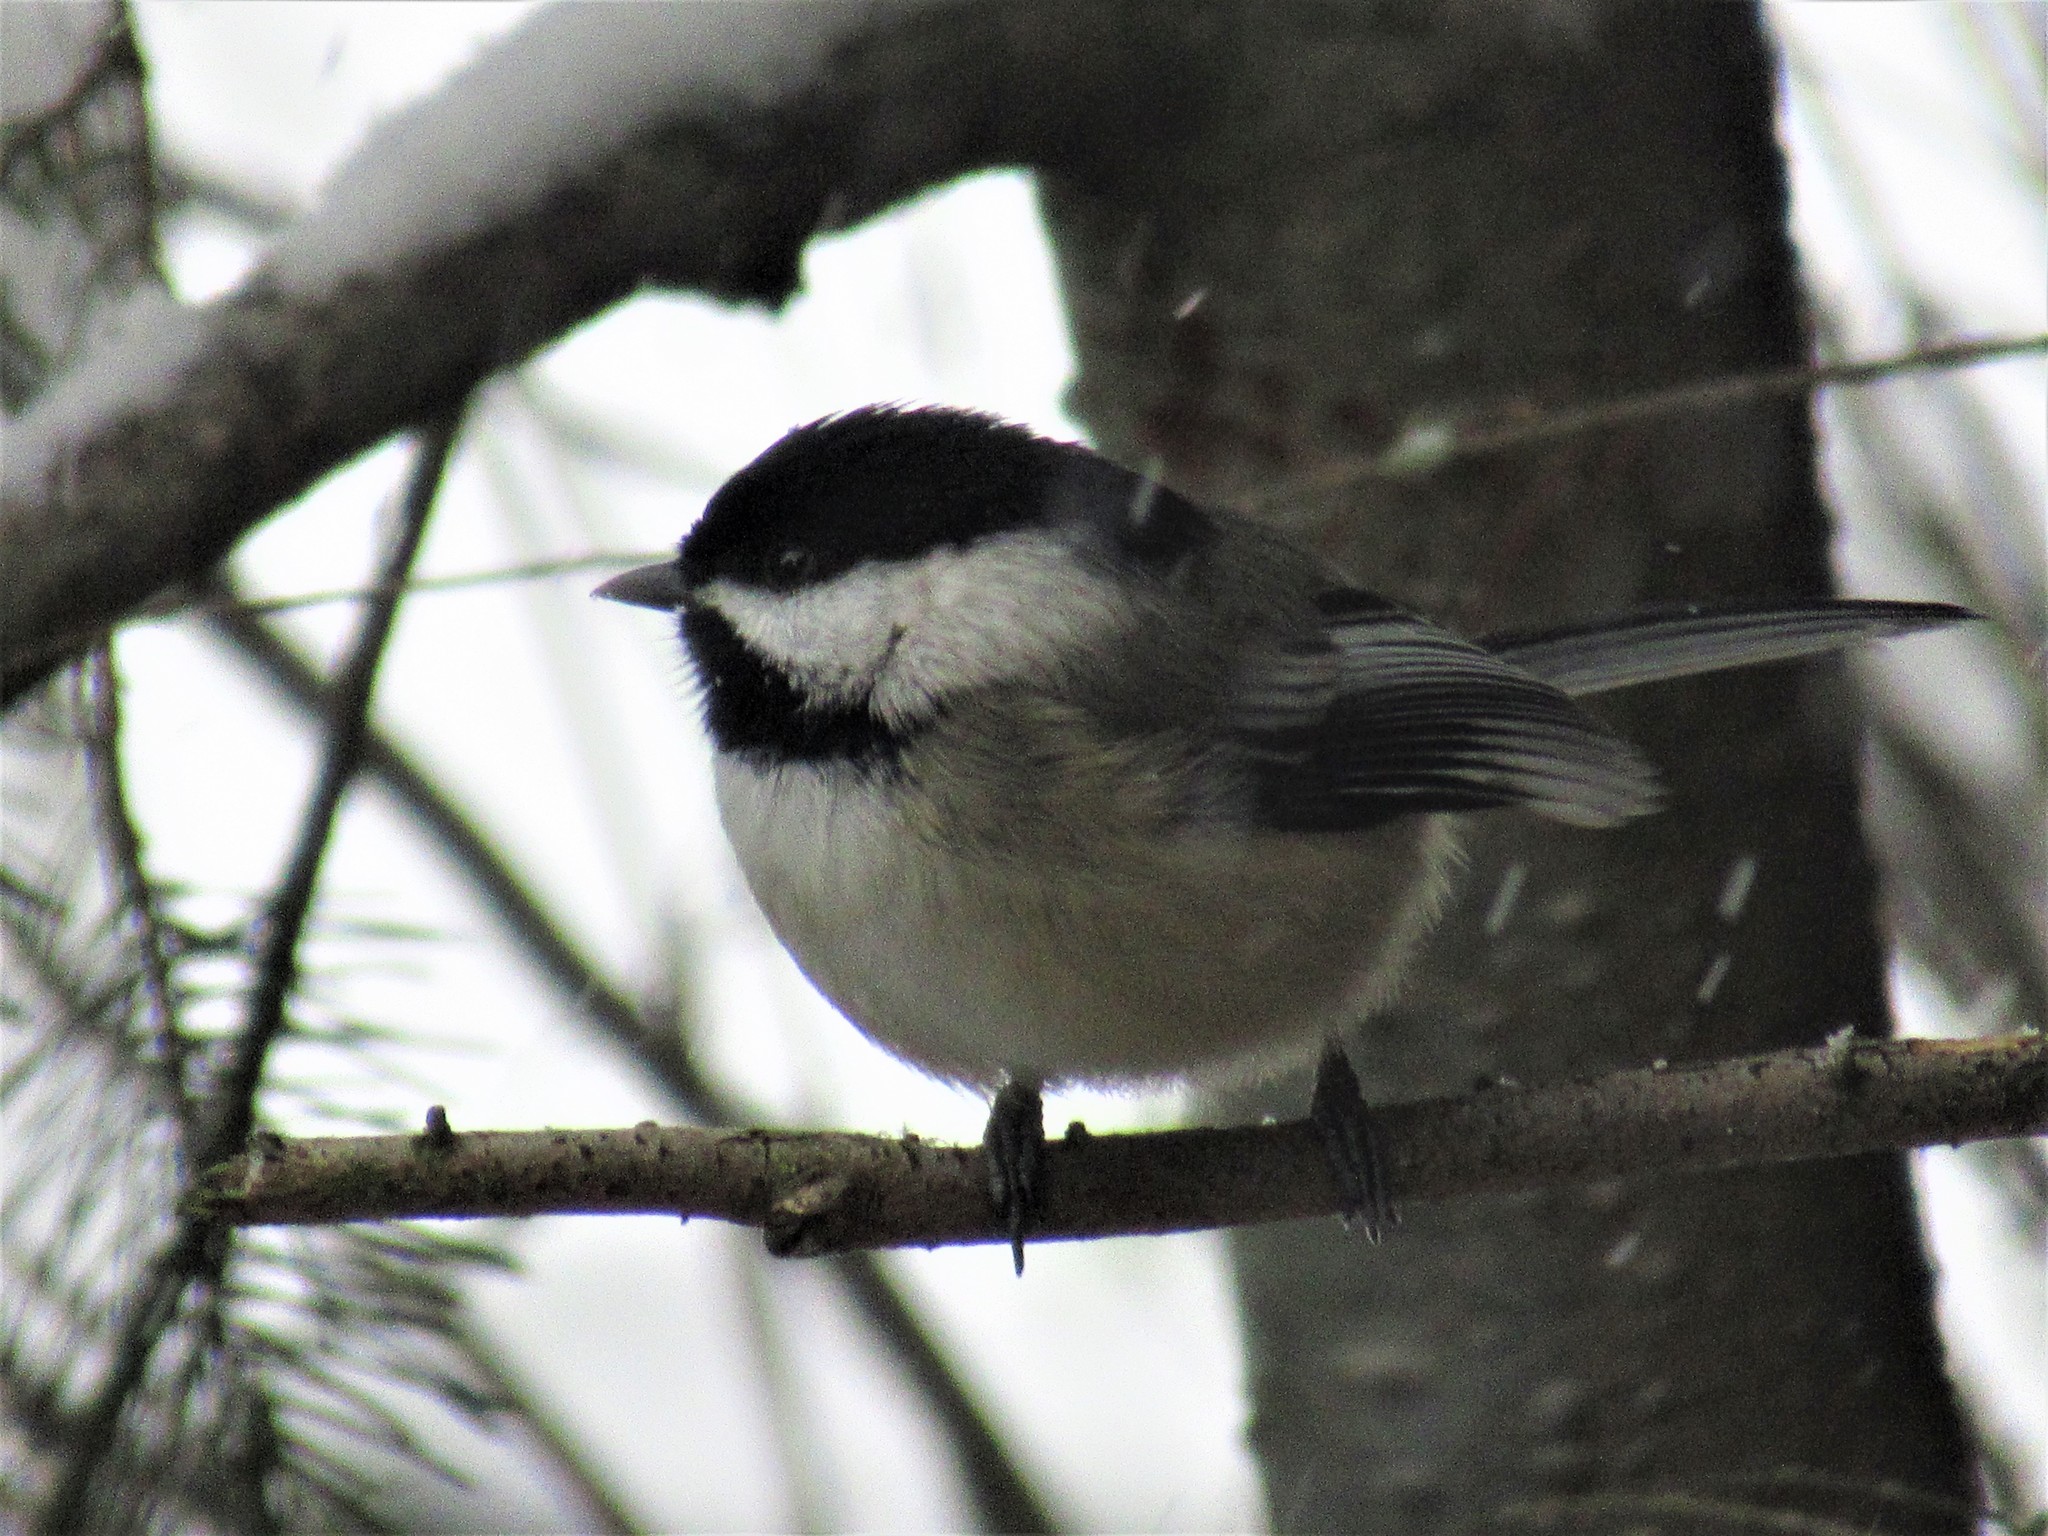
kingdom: Animalia
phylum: Chordata
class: Aves
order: Passeriformes
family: Paridae
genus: Poecile
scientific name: Poecile atricapillus
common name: Black-capped chickadee
